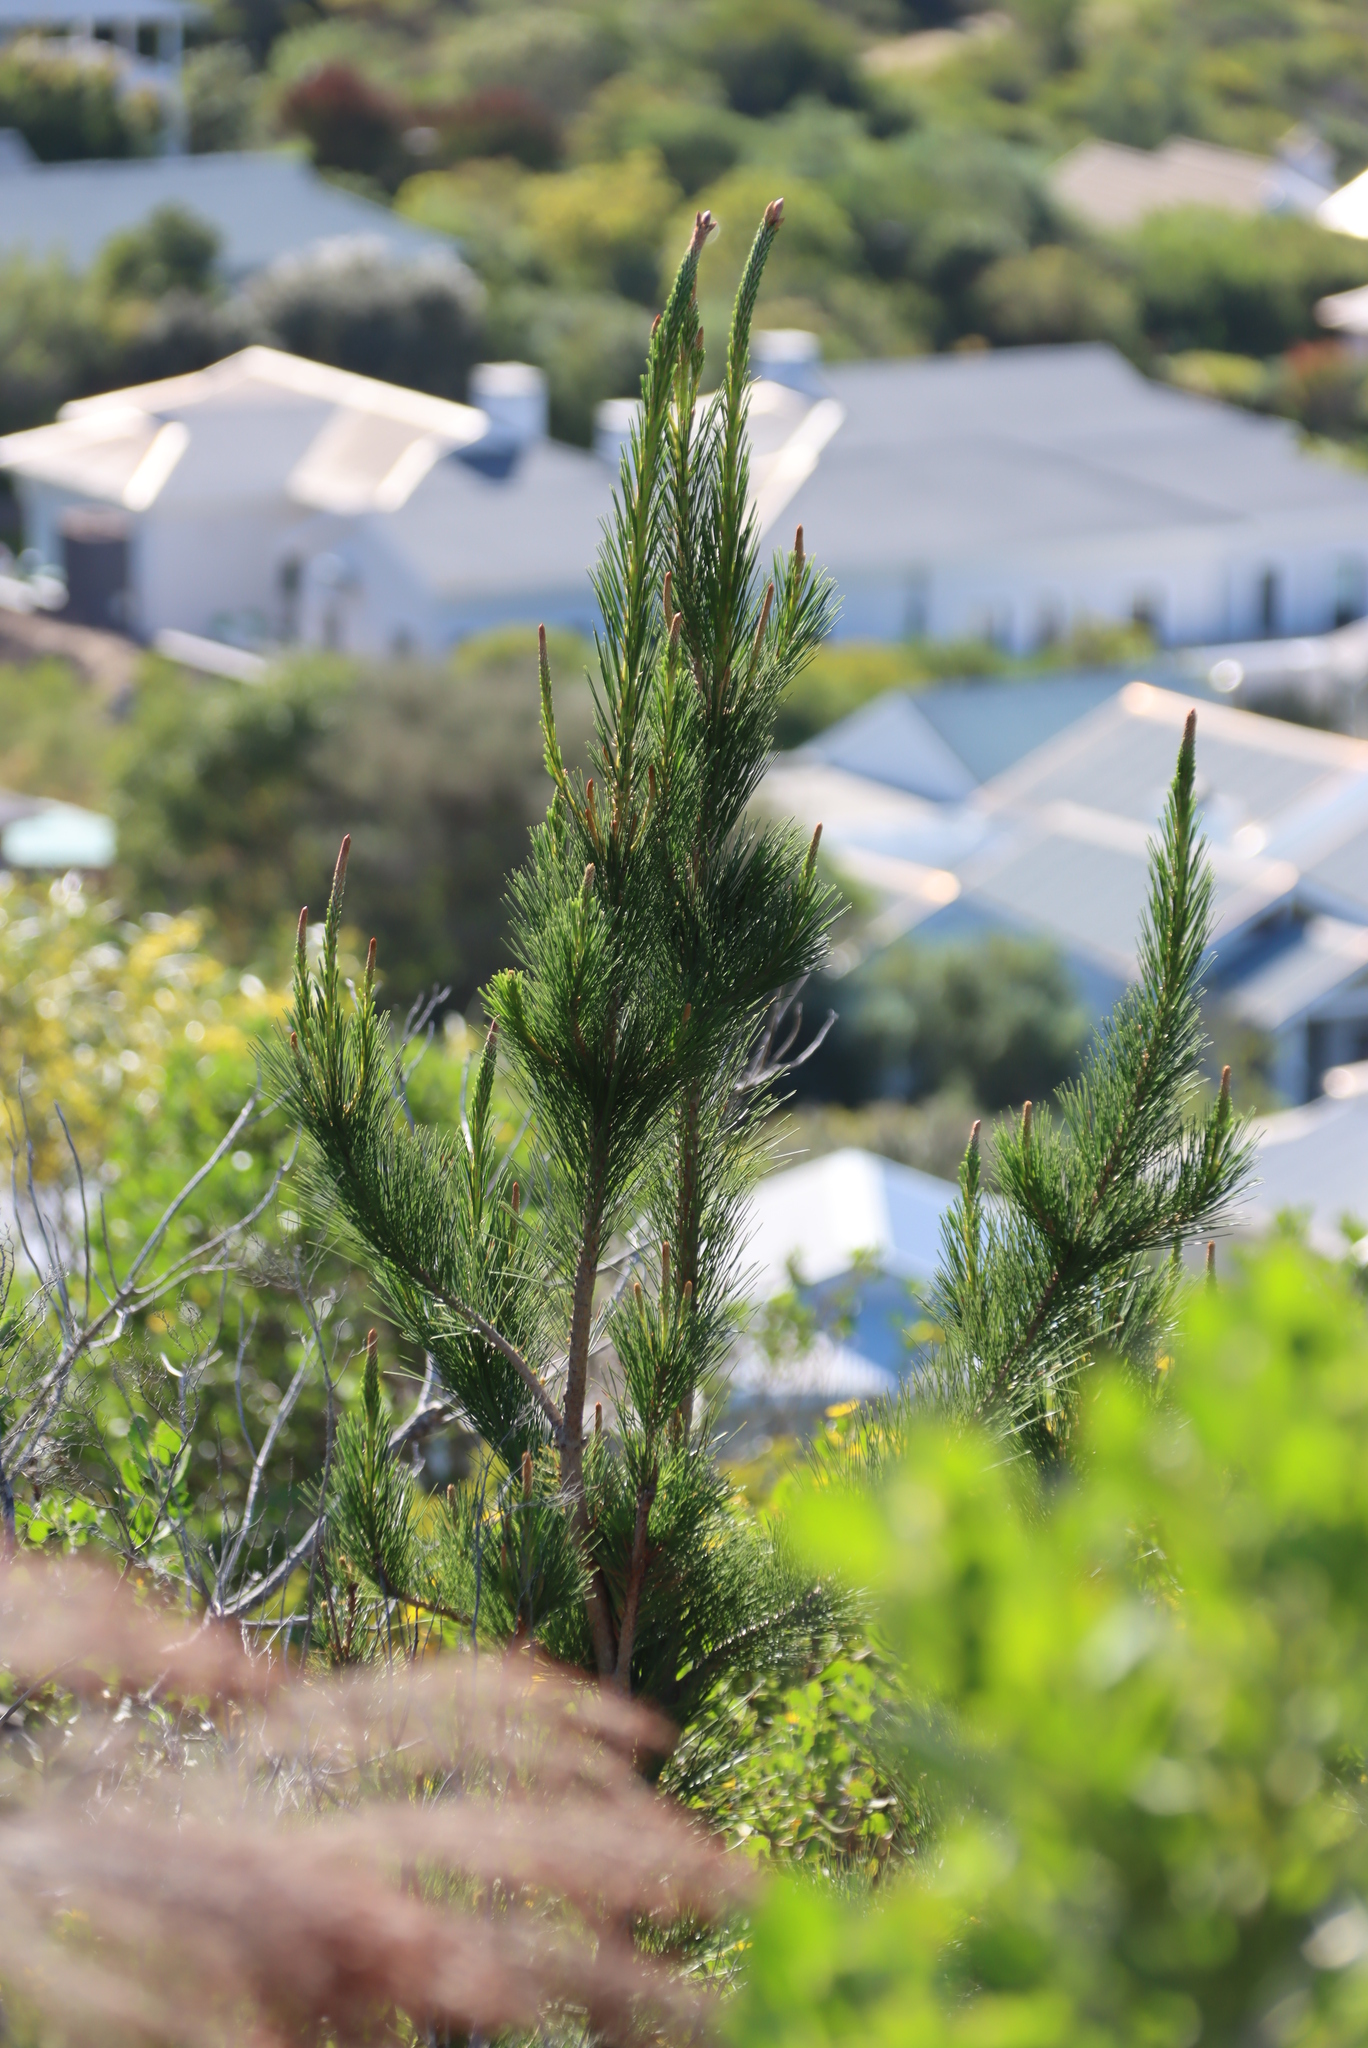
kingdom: Plantae
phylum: Tracheophyta
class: Pinopsida
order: Pinales
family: Pinaceae
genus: Pinus
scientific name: Pinus radiata
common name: Monterey pine
